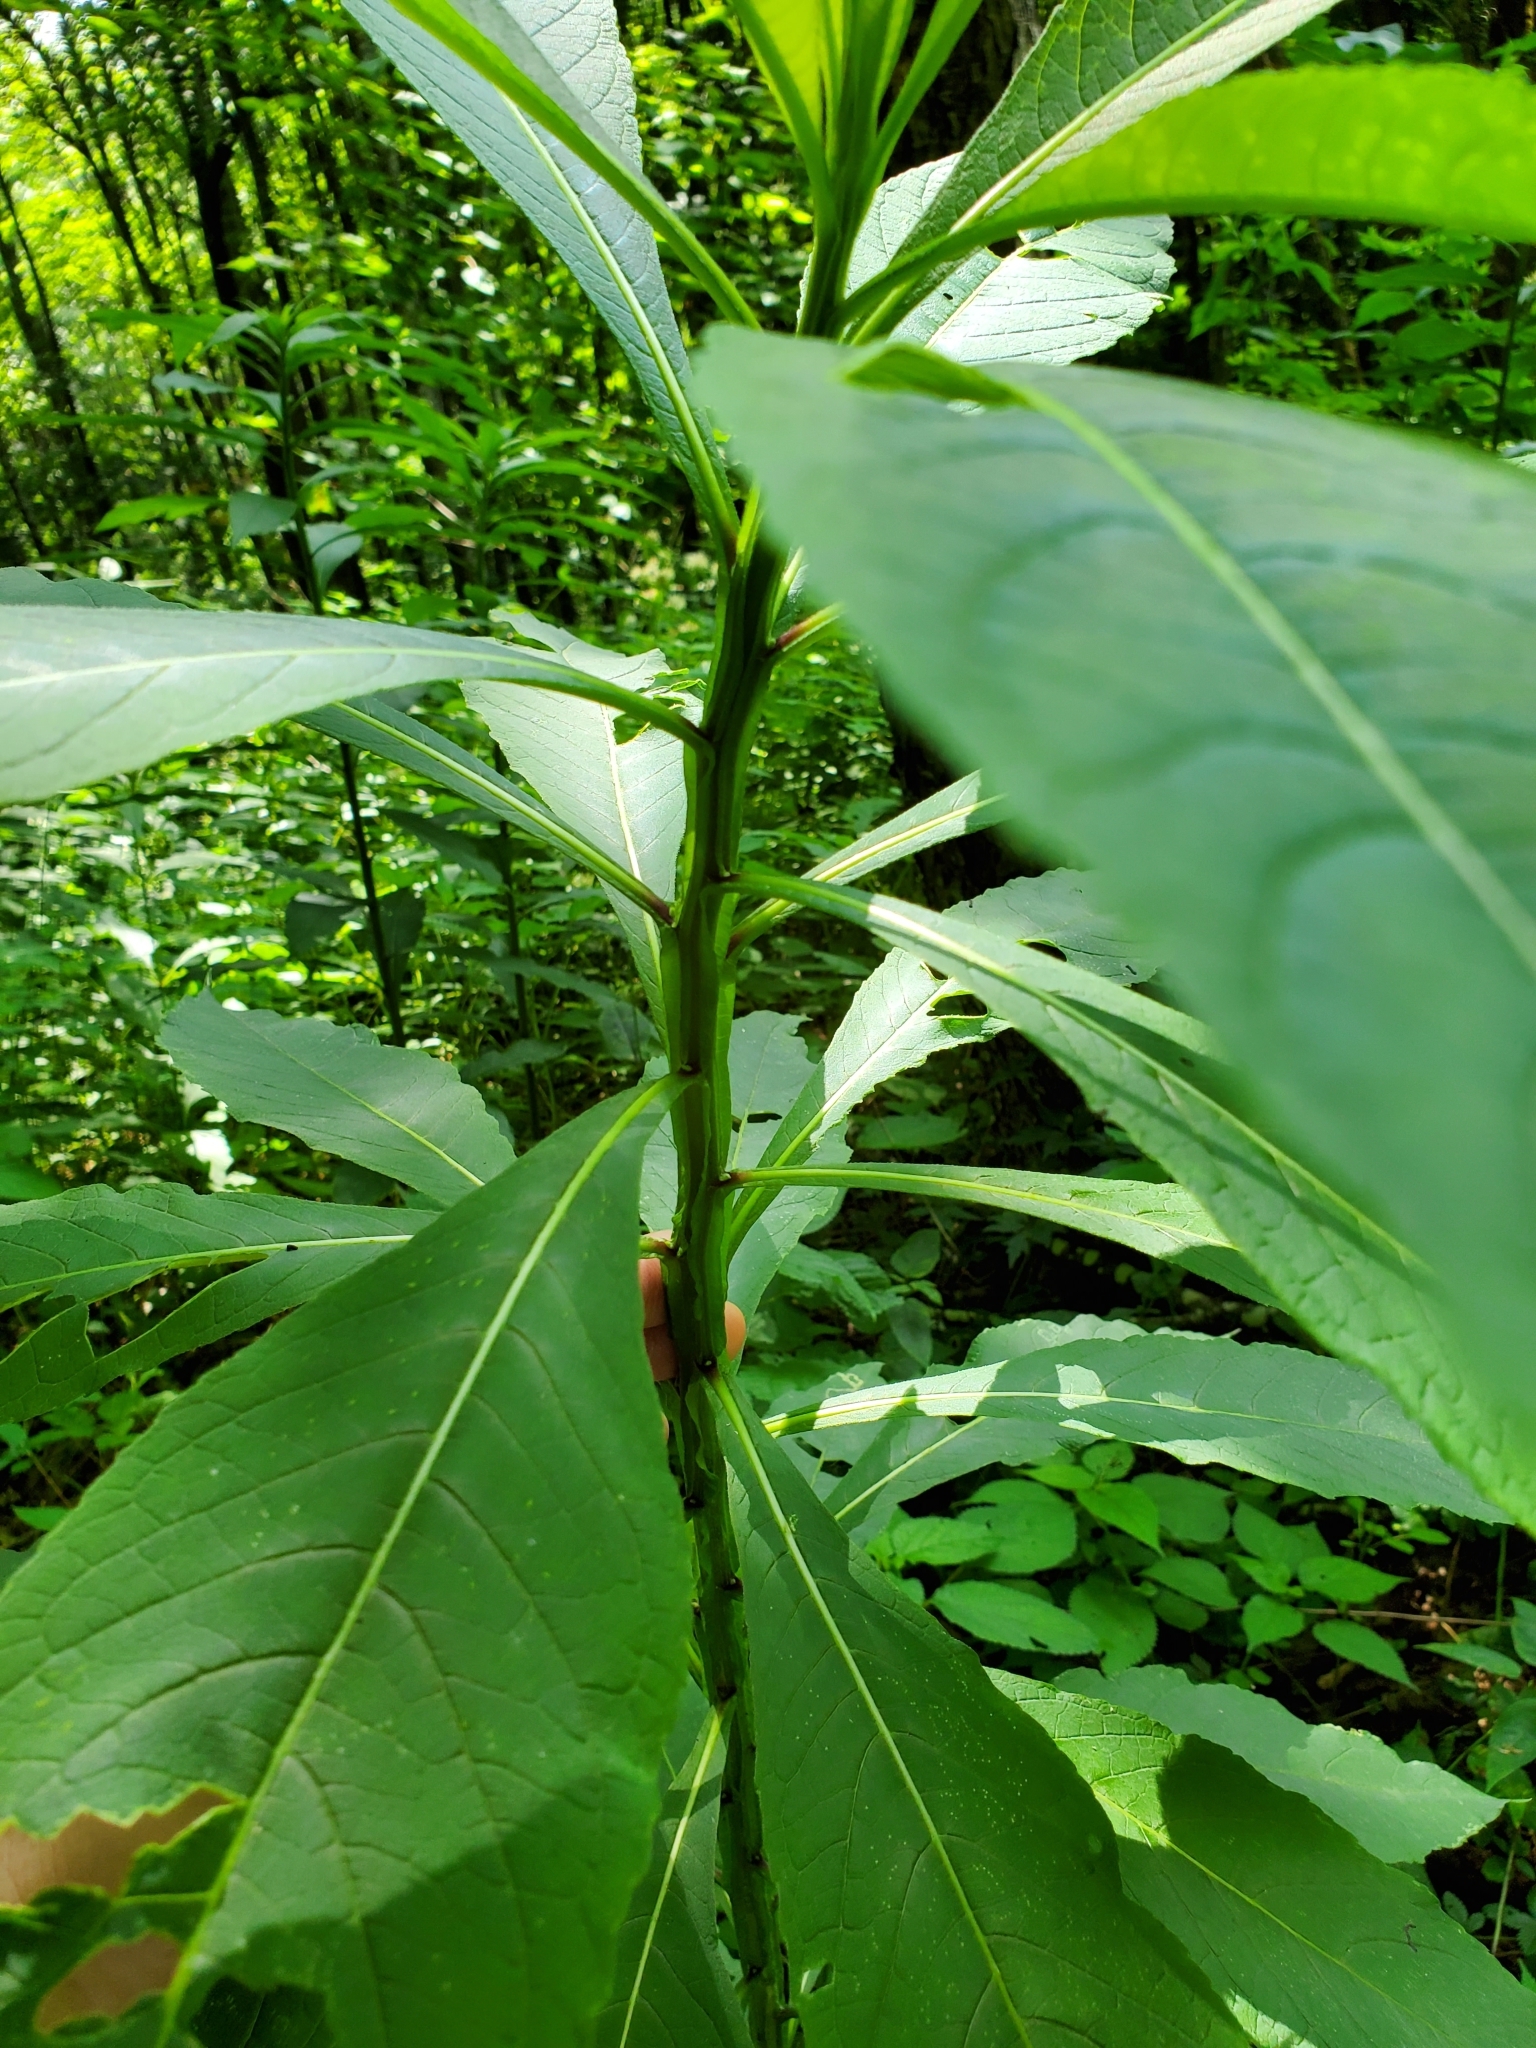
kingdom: Plantae
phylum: Tracheophyta
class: Magnoliopsida
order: Asterales
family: Asteraceae
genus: Verbesina
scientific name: Verbesina alternifolia
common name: Wingstem
